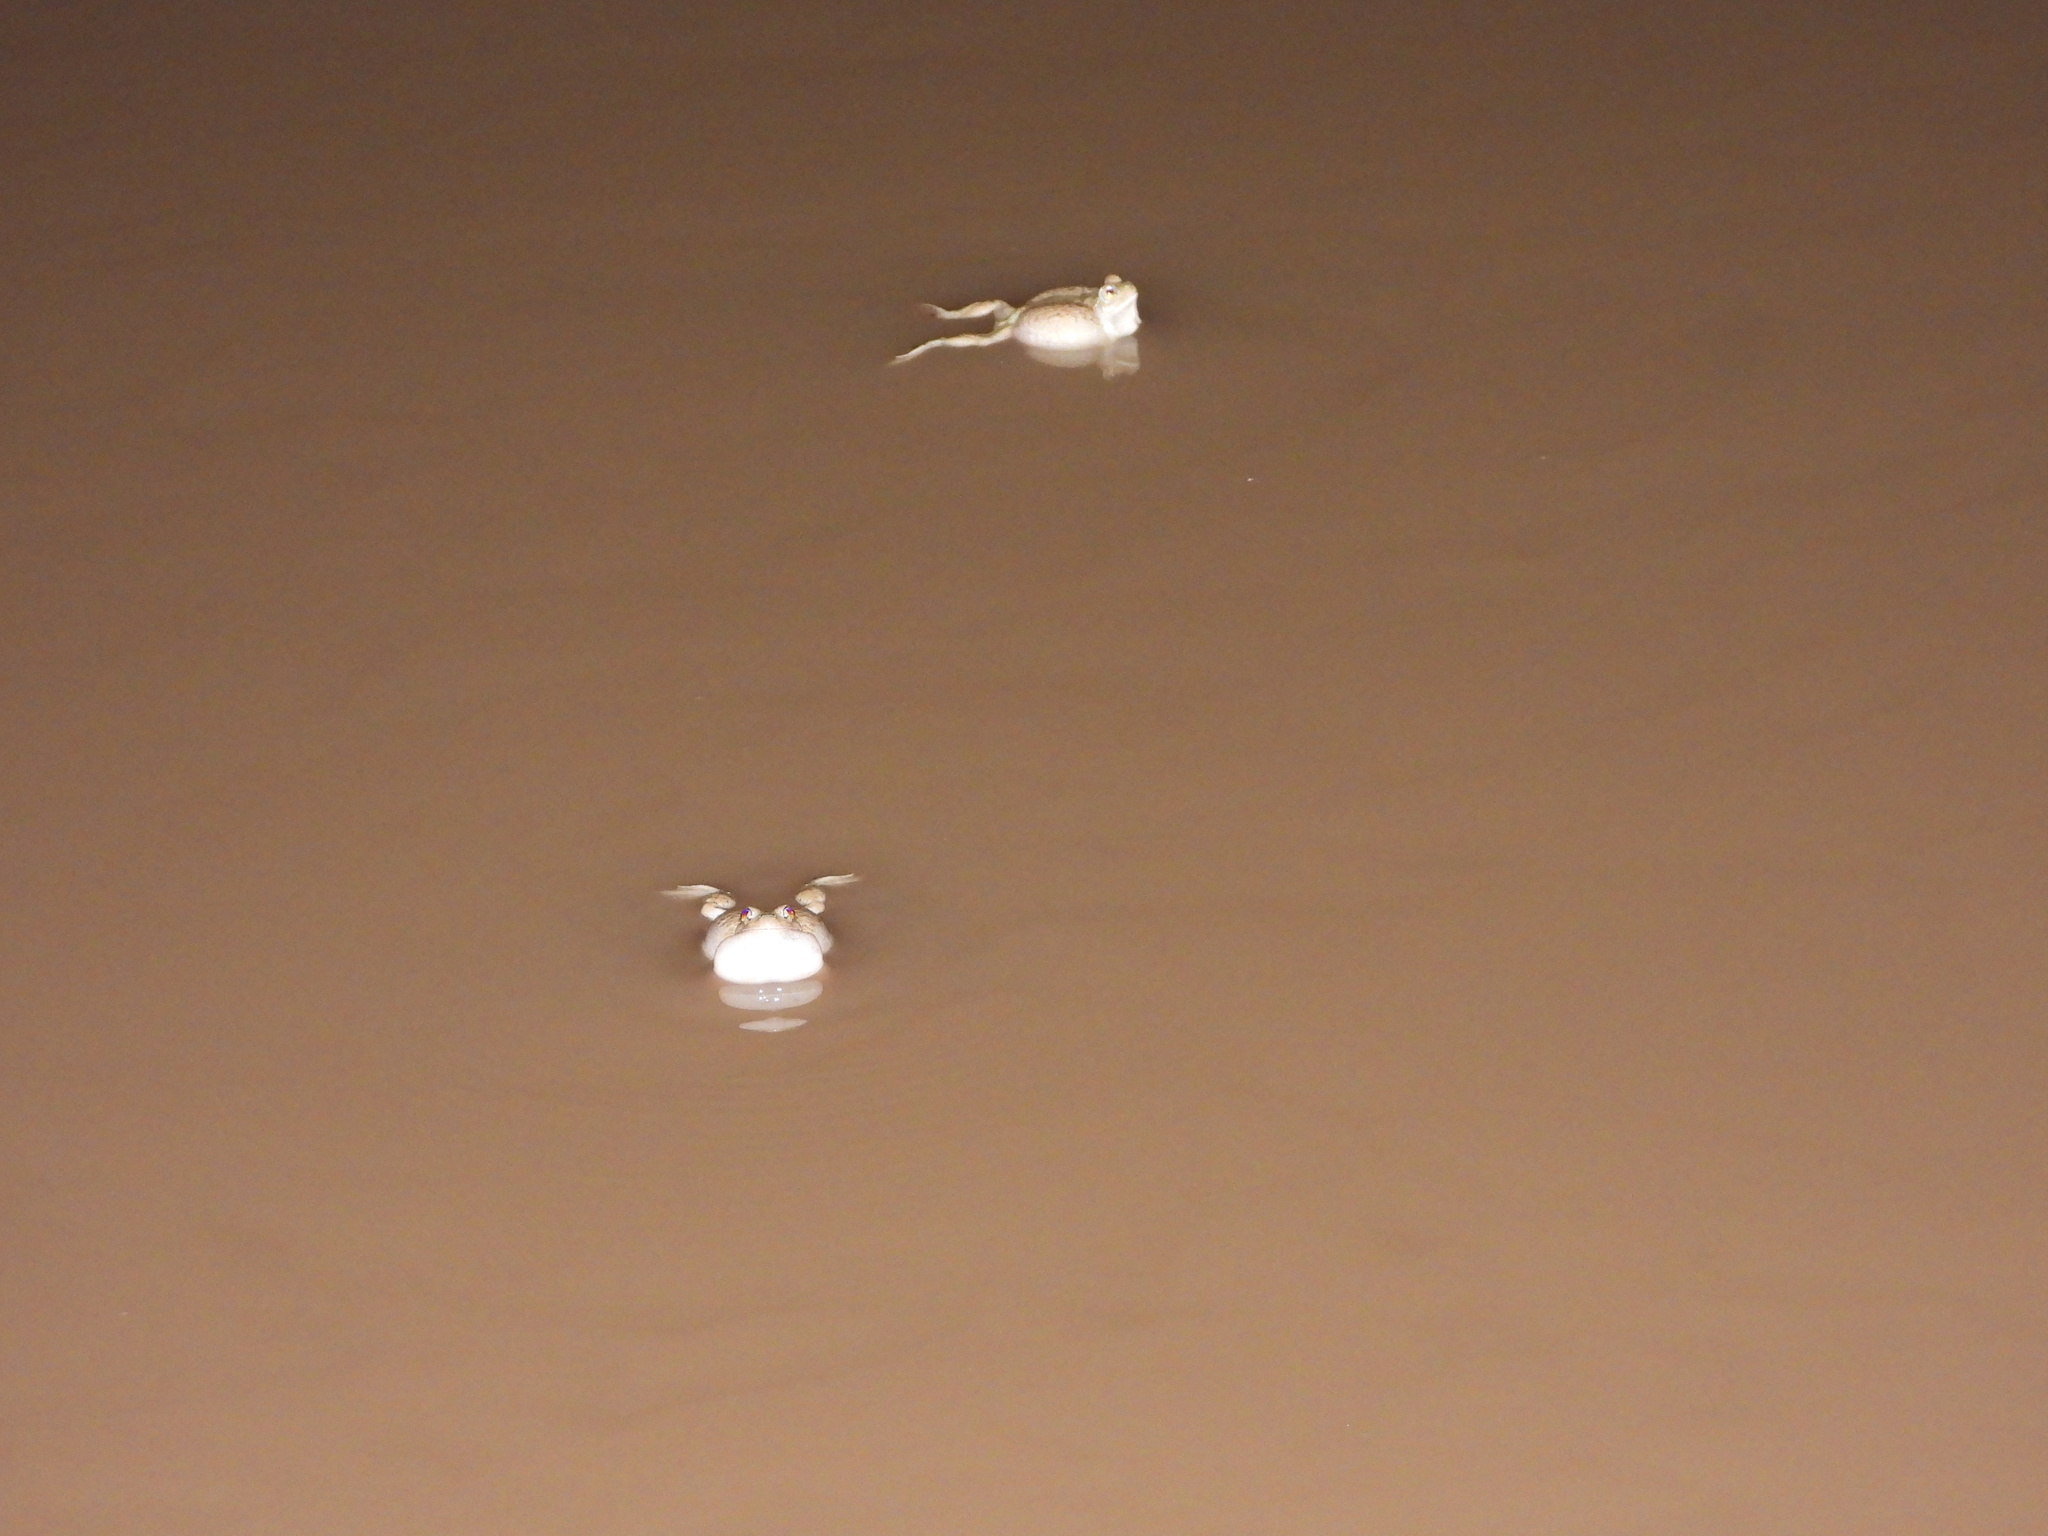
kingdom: Animalia
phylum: Chordata
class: Amphibia
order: Anura
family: Scaphiopodidae
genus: Spea
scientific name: Spea multiplicata
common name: Mexican spadefoot
